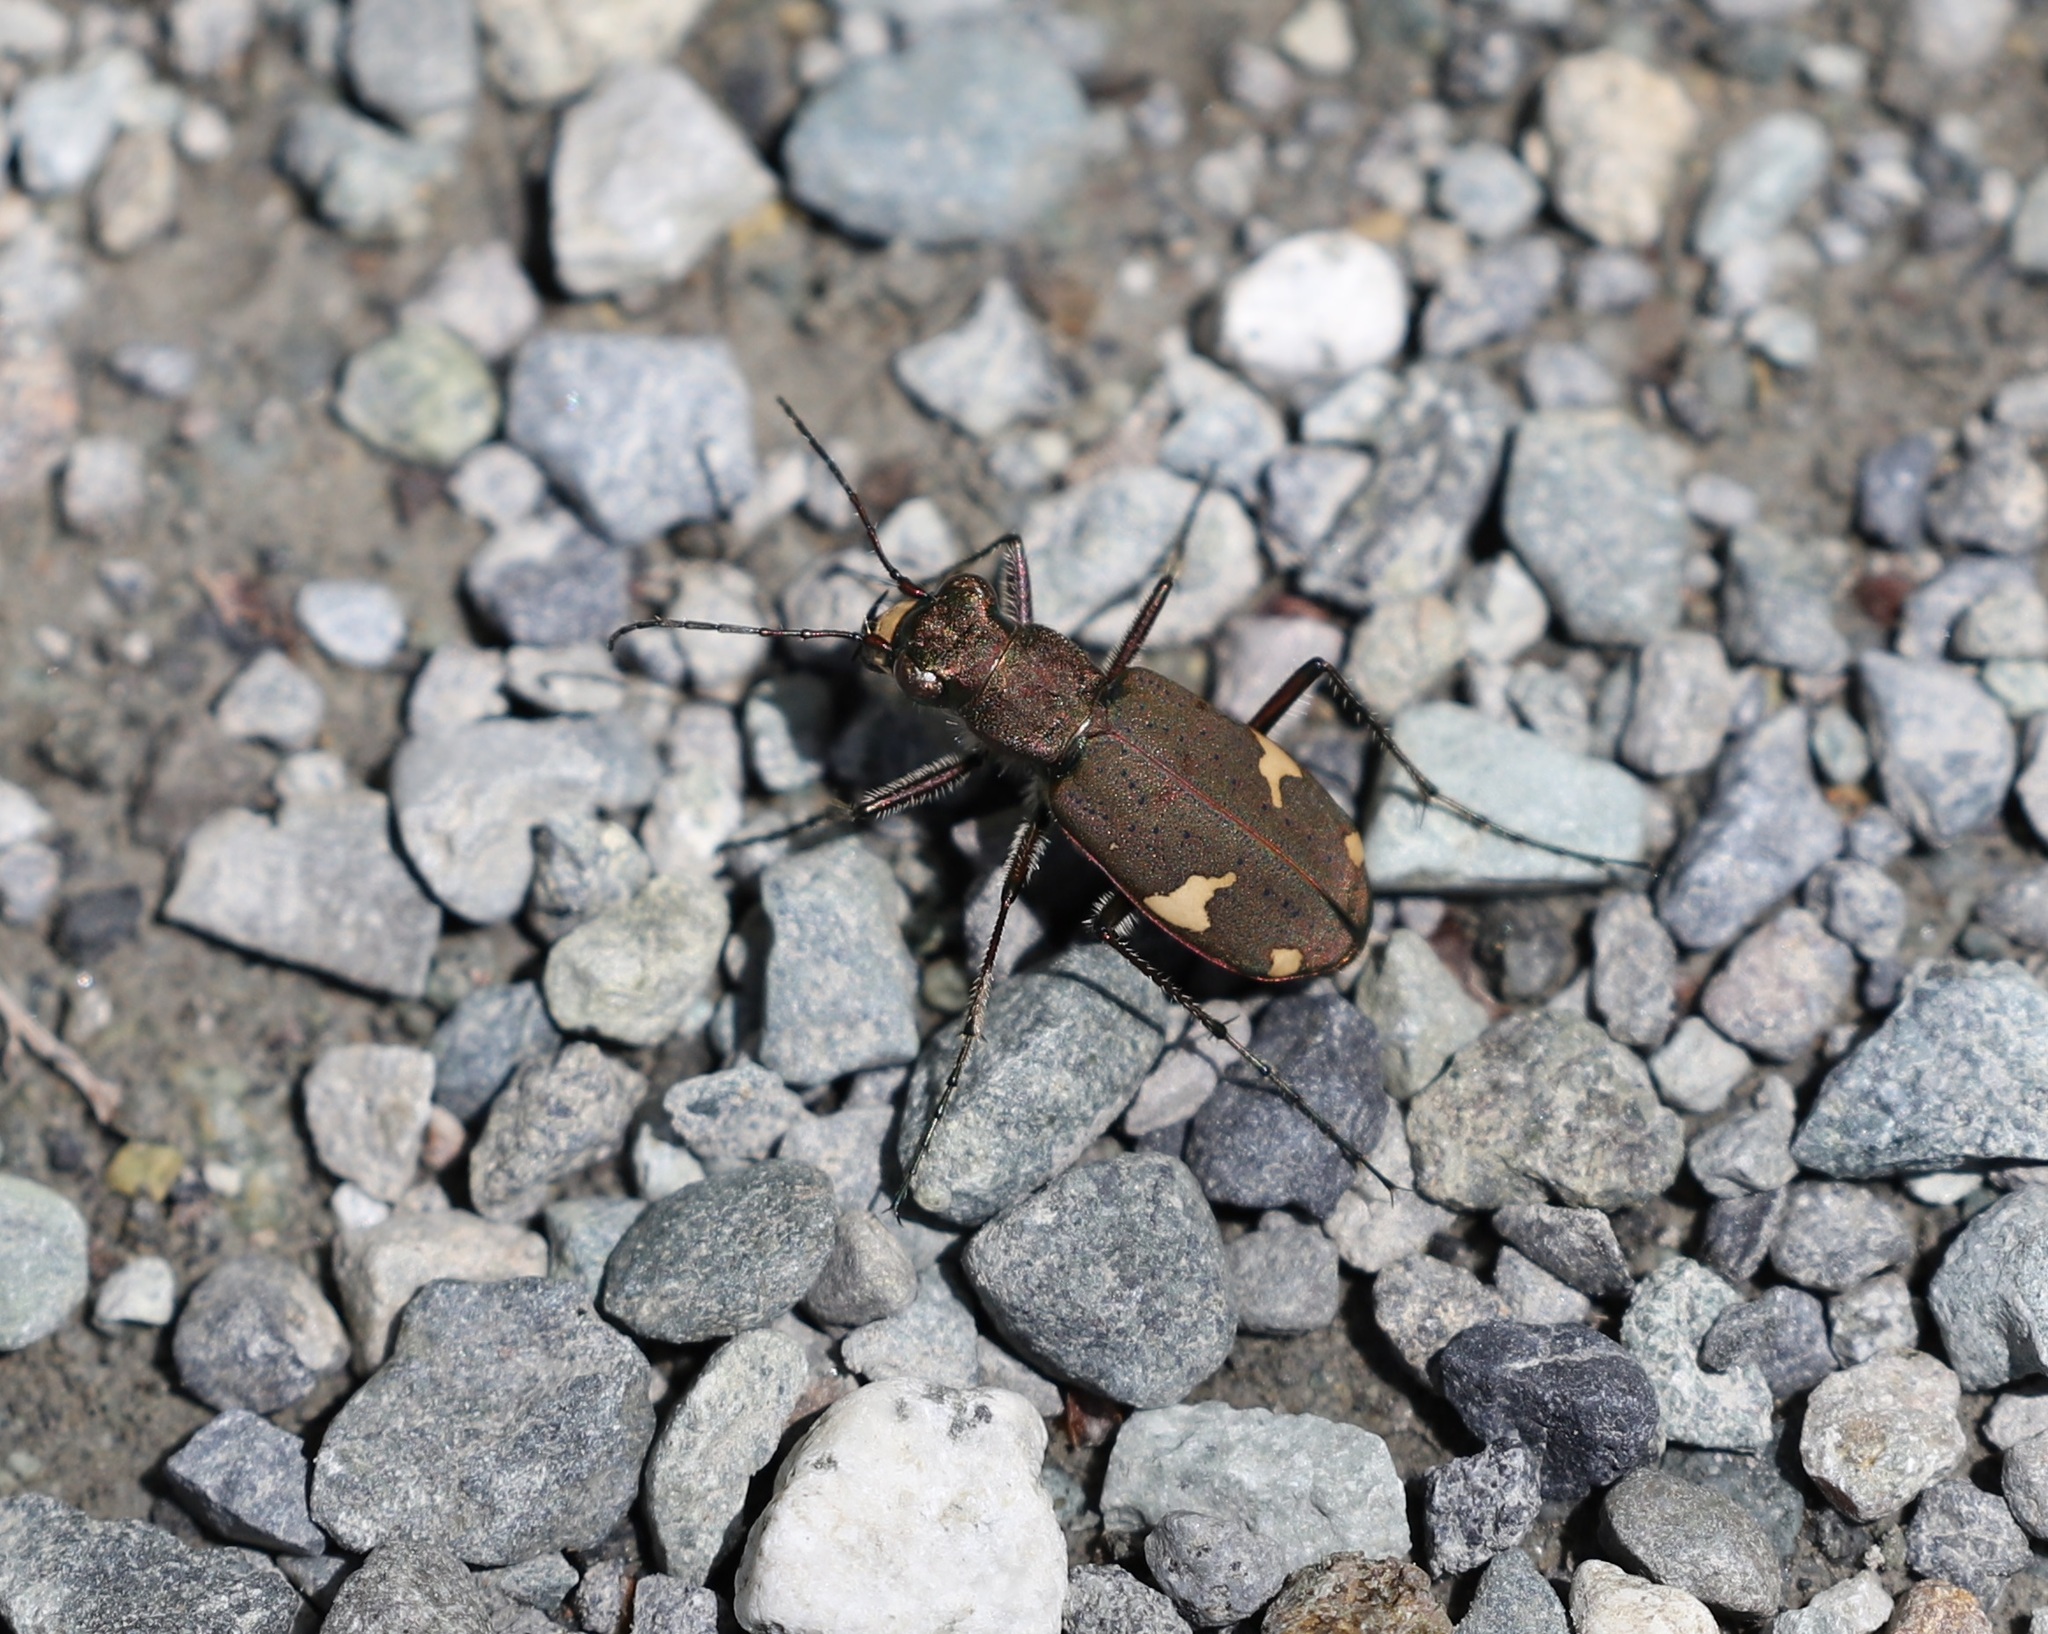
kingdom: Animalia
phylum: Arthropoda
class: Insecta
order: Coleoptera
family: Carabidae
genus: Cicindela
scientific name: Cicindela japana
